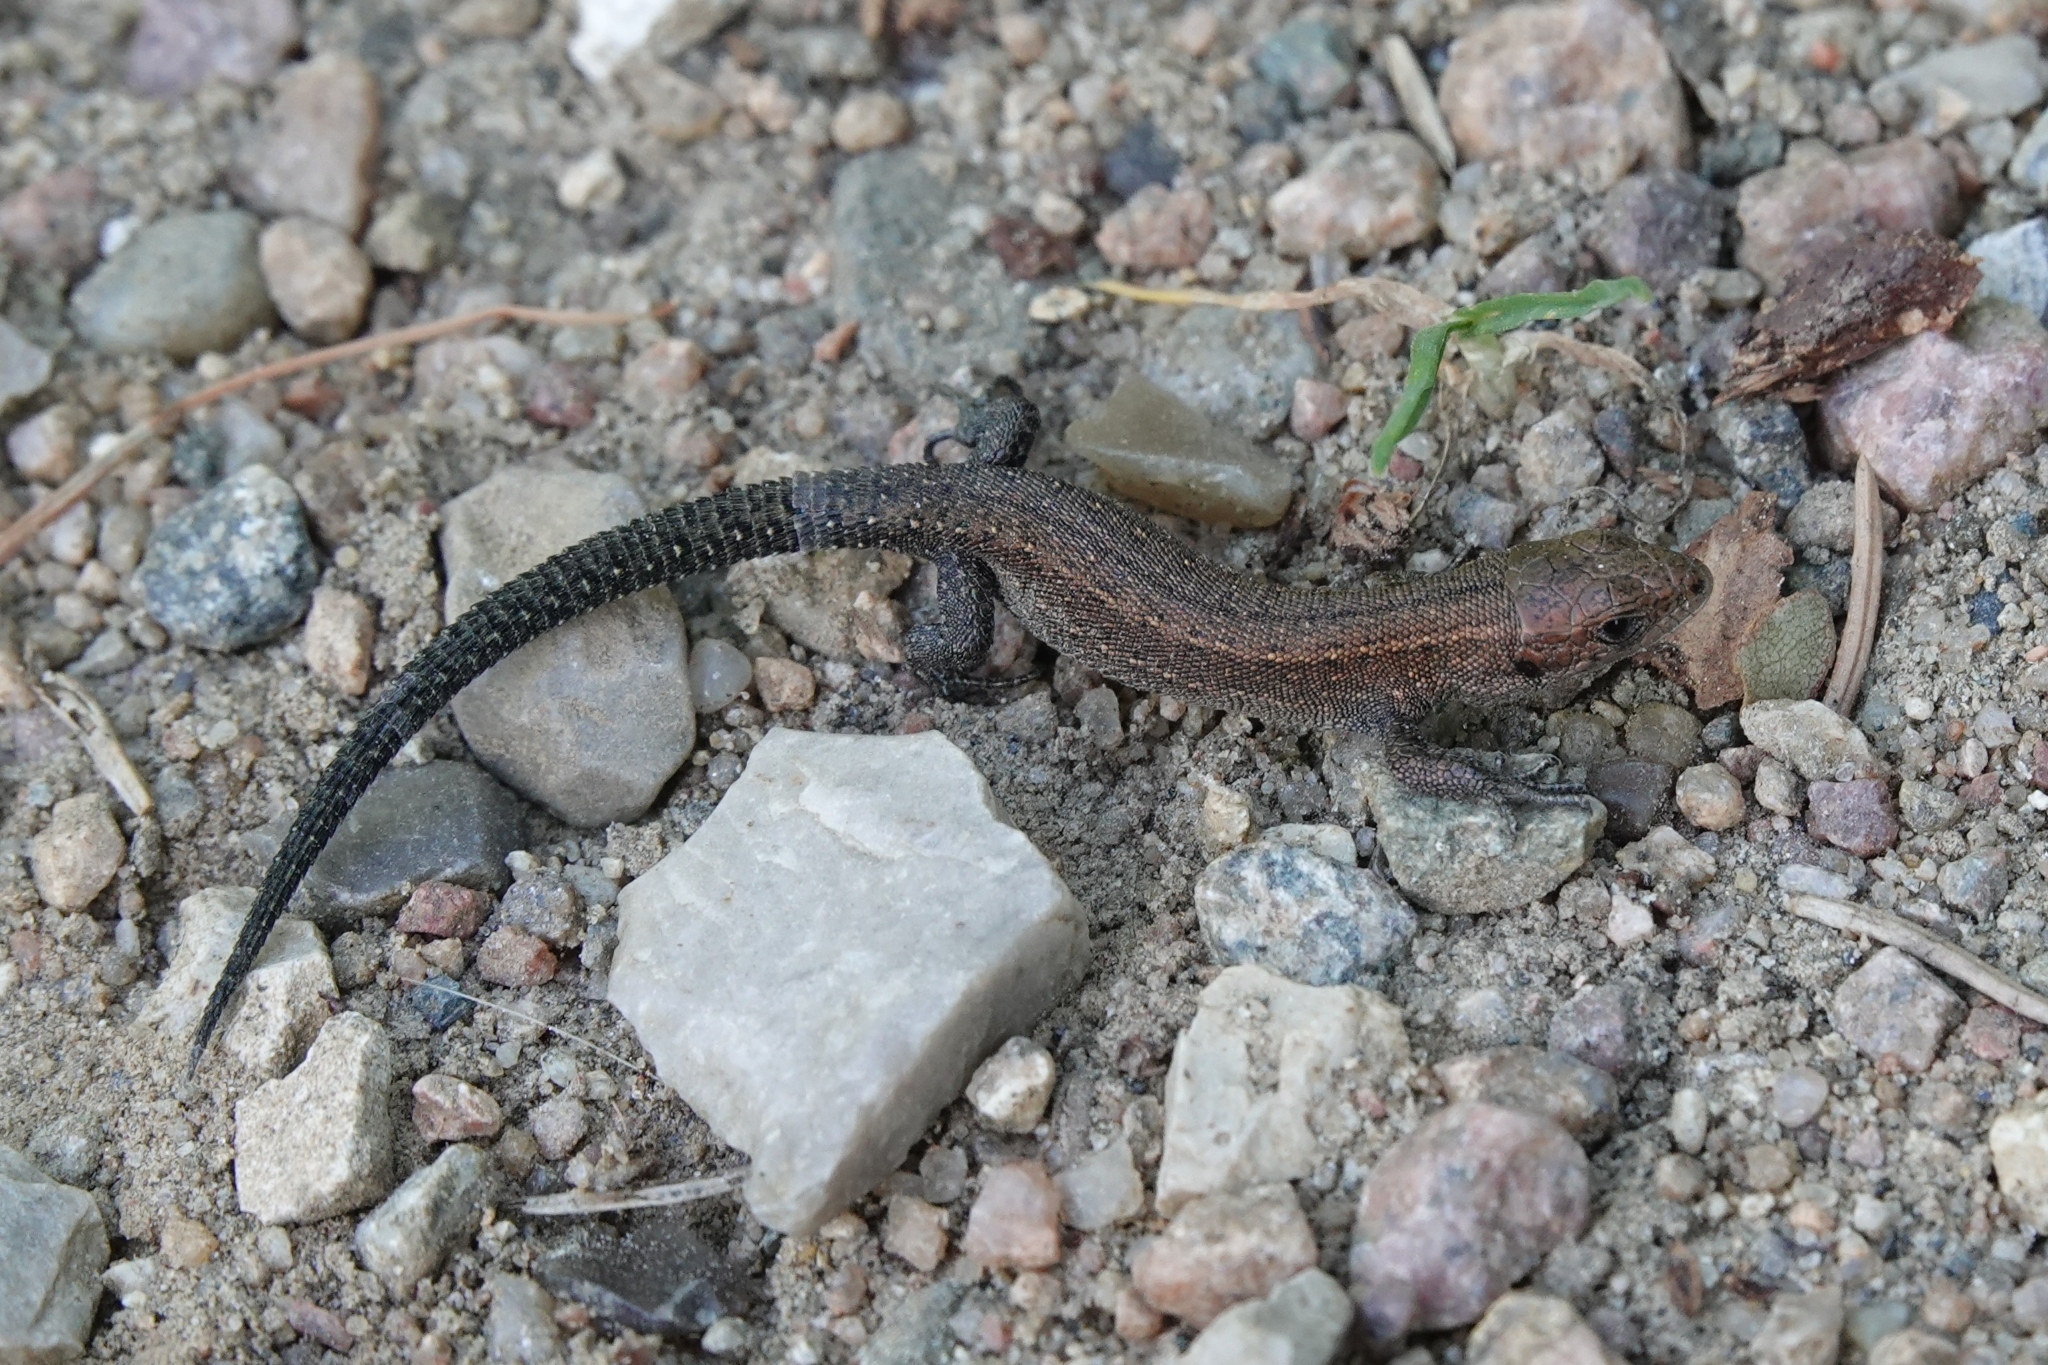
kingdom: Animalia
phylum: Chordata
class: Squamata
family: Lacertidae
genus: Zootoca
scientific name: Zootoca vivipara
